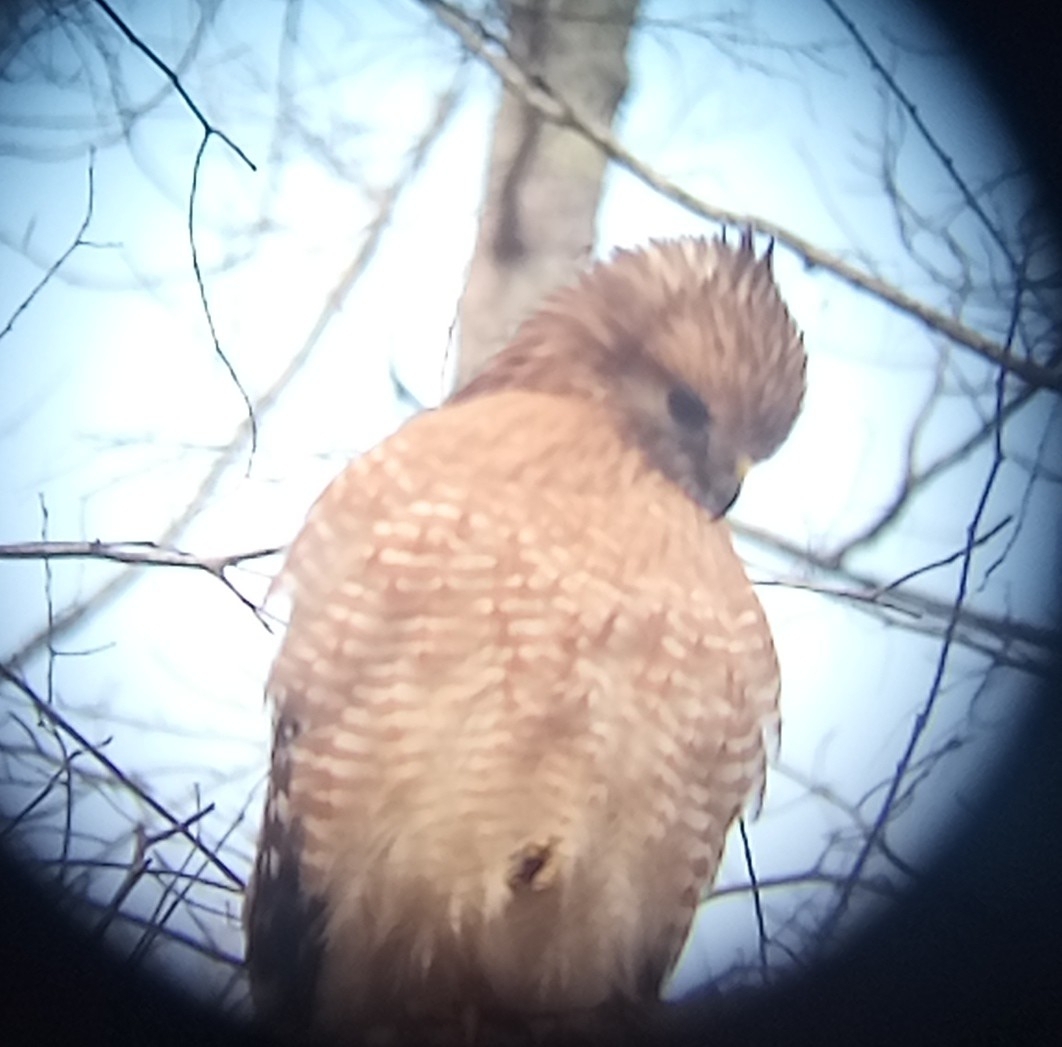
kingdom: Animalia
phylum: Chordata
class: Aves
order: Accipitriformes
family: Accipitridae
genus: Buteo
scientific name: Buteo lineatus
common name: Red-shouldered hawk
